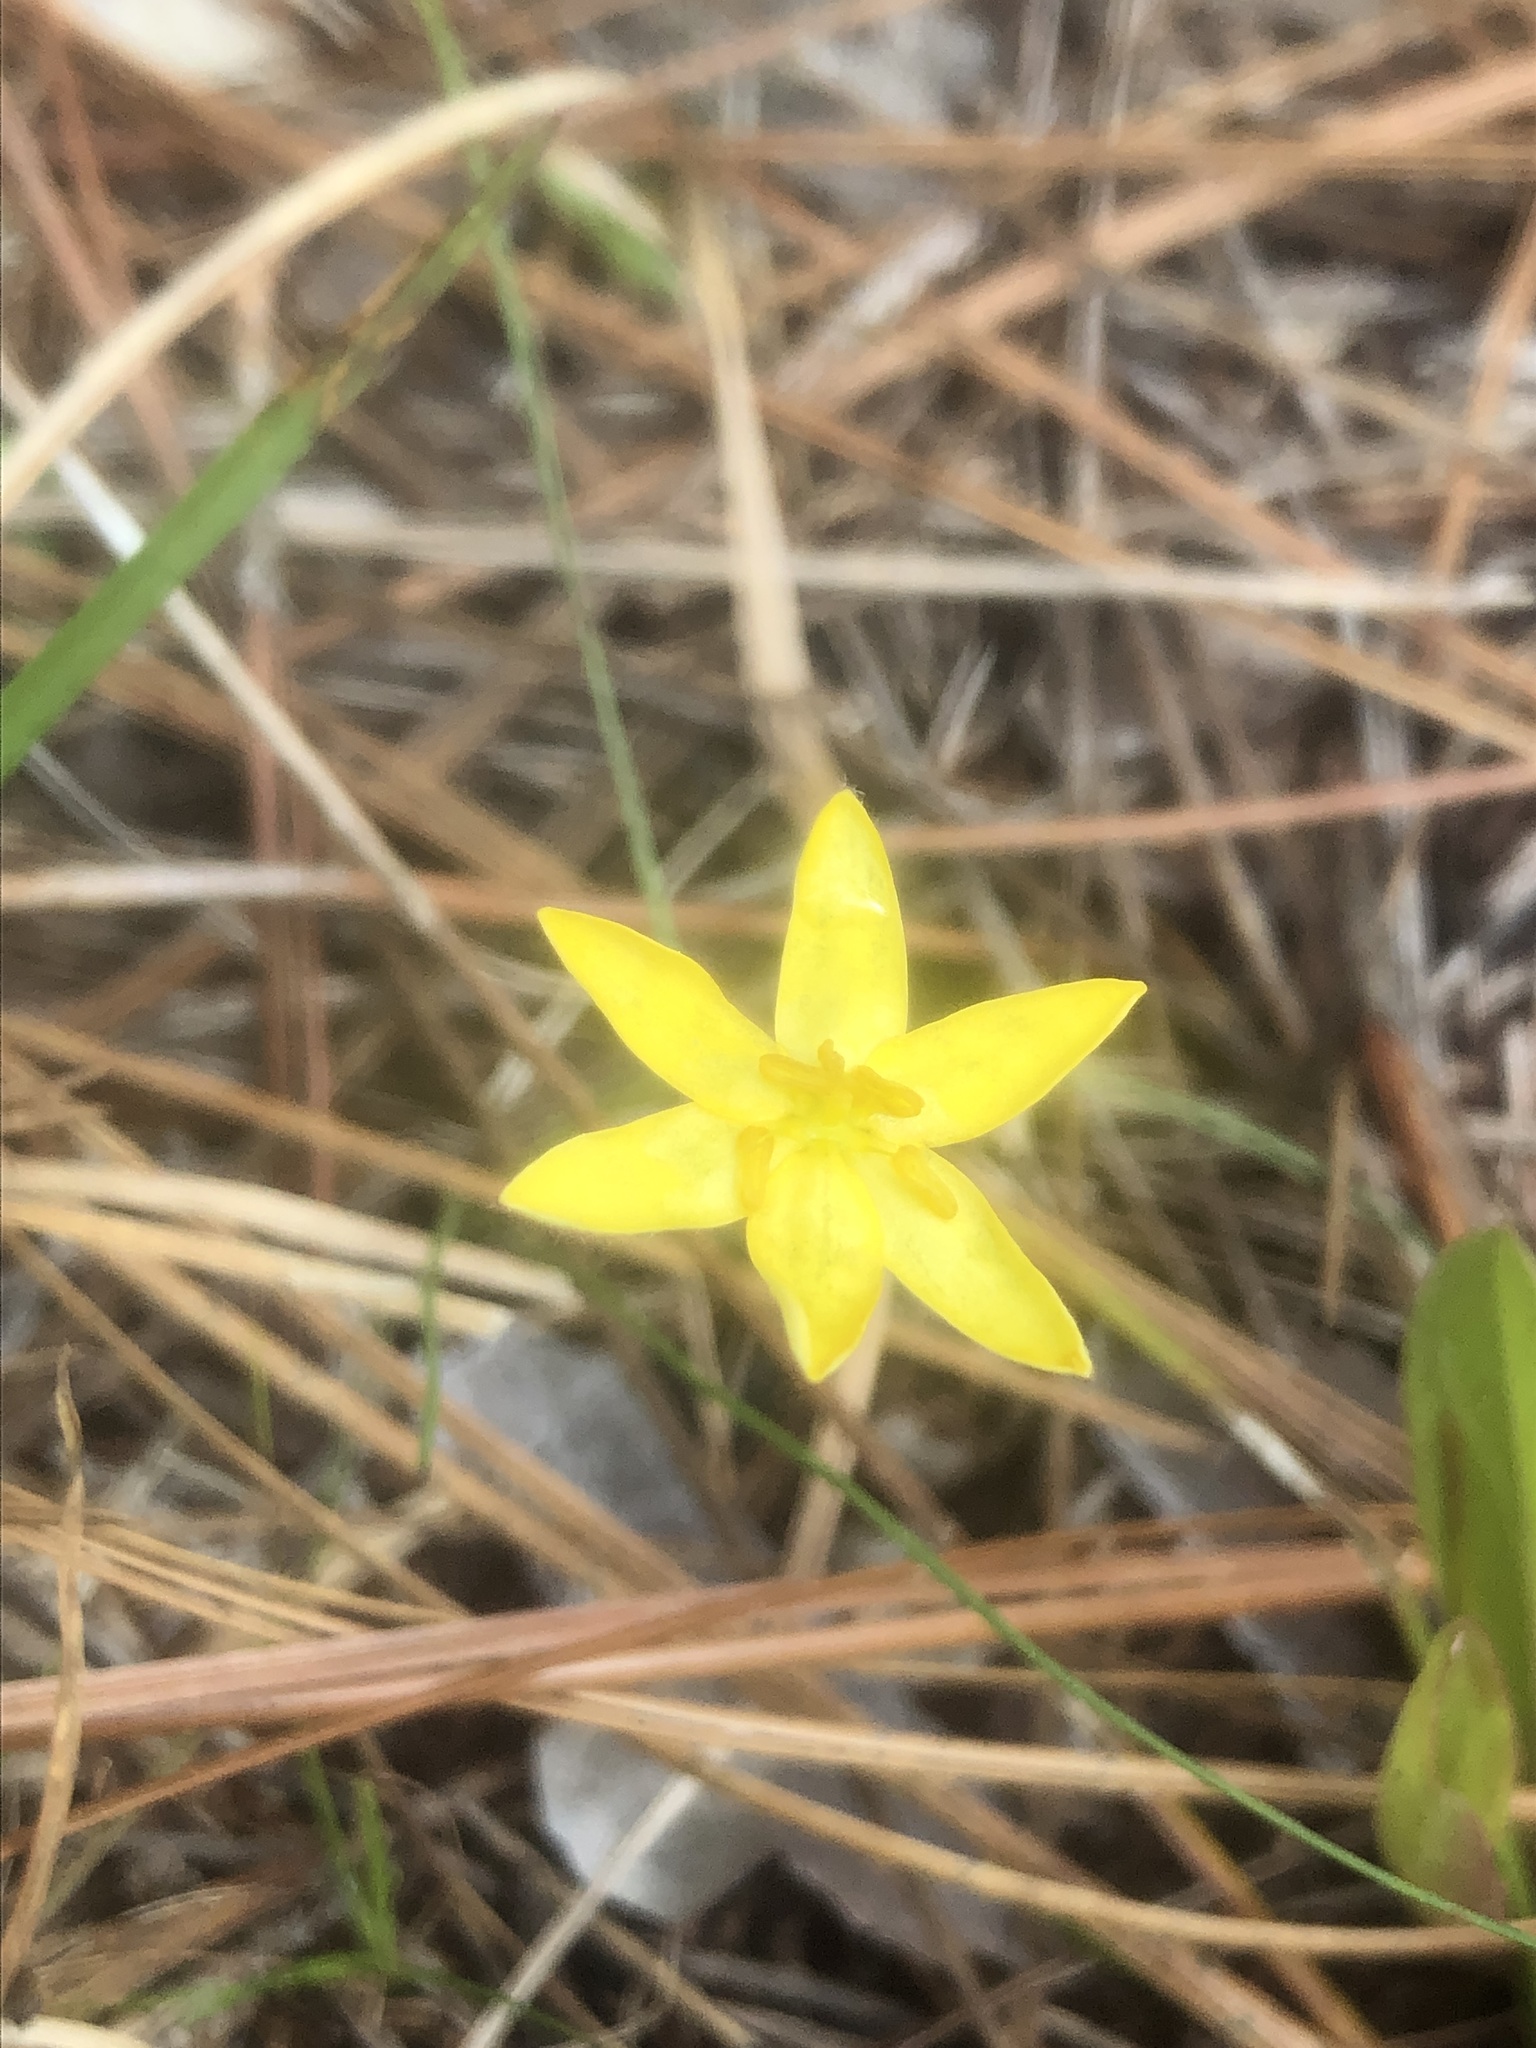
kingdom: Plantae
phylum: Tracheophyta
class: Liliopsida
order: Asparagales
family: Hypoxidaceae
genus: Hypoxis
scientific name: Hypoxis juncea
